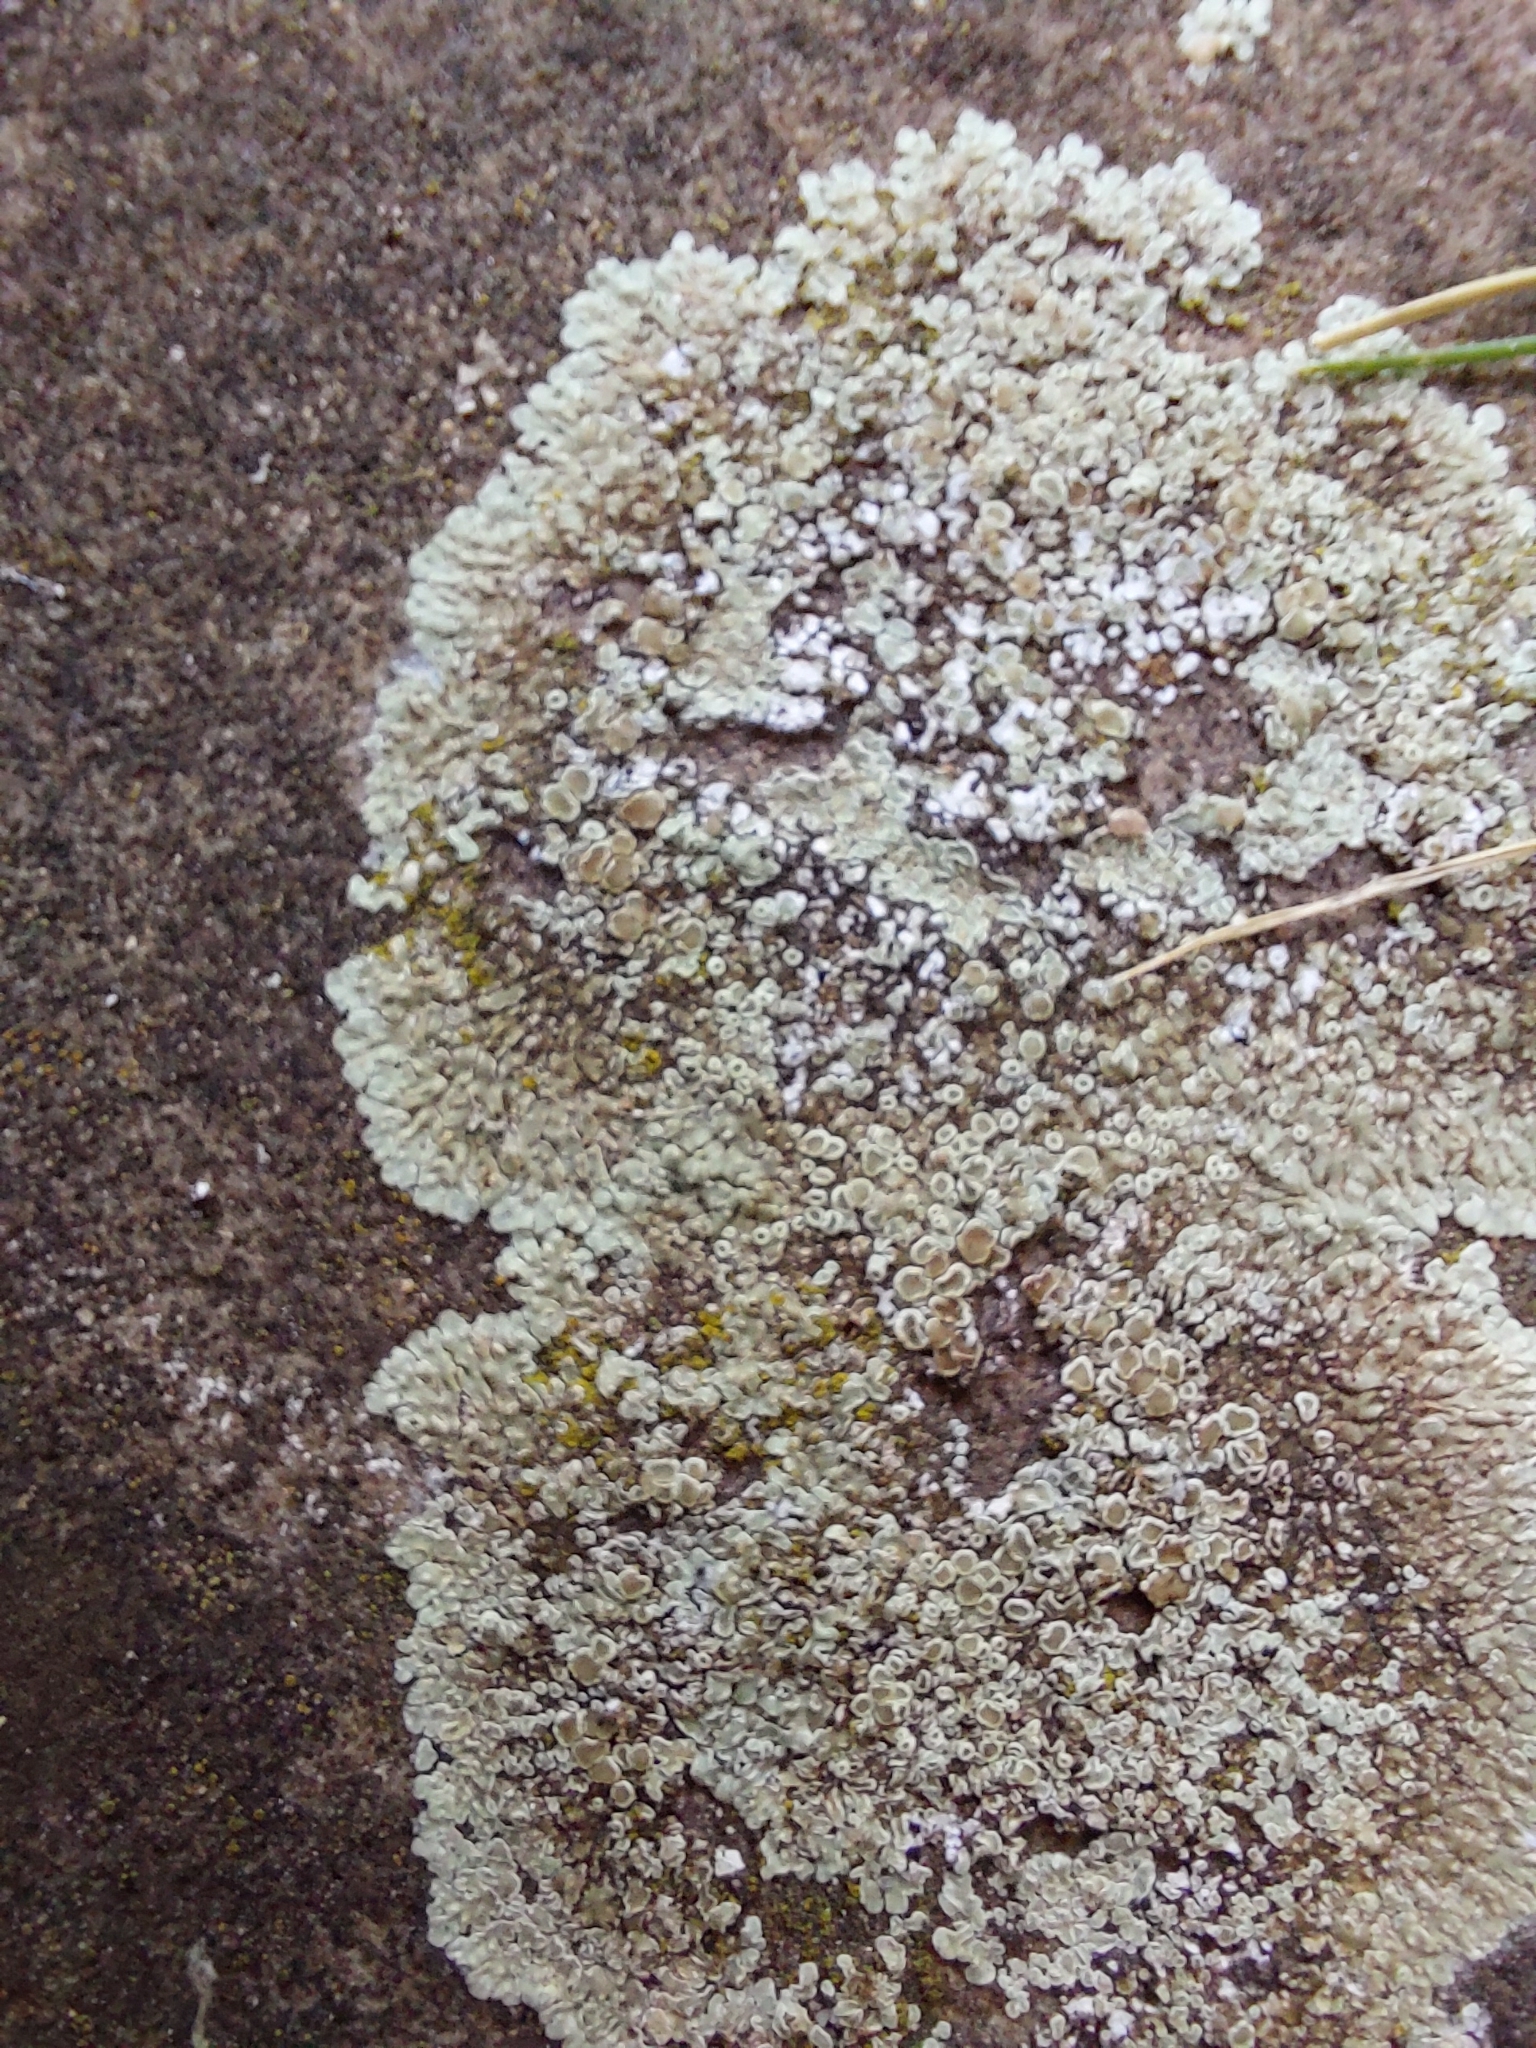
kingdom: Fungi
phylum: Ascomycota
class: Lecanoromycetes
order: Lecanorales
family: Lecanoraceae
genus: Protoparmeliopsis
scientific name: Protoparmeliopsis muralis
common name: Stonewall rim lichen
